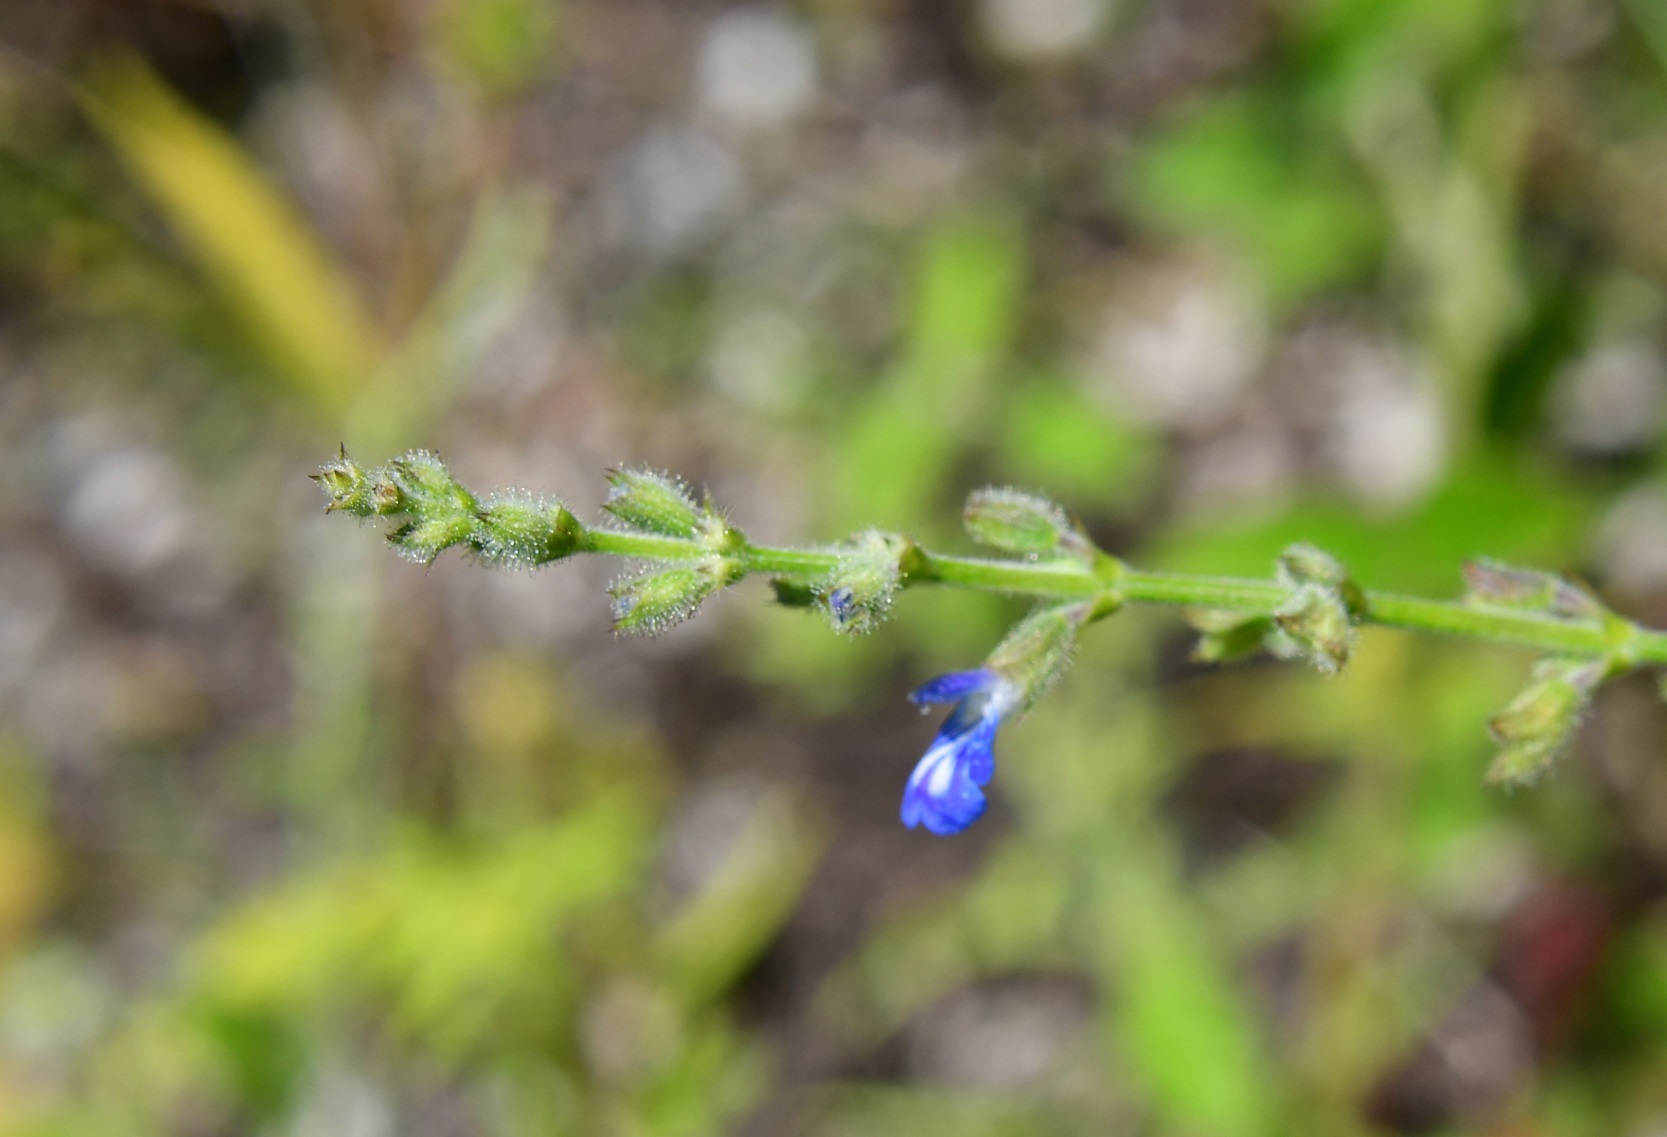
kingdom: Plantae
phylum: Tracheophyta
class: Magnoliopsida
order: Lamiales
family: Lamiaceae
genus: Salvia
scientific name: Salvia misella
